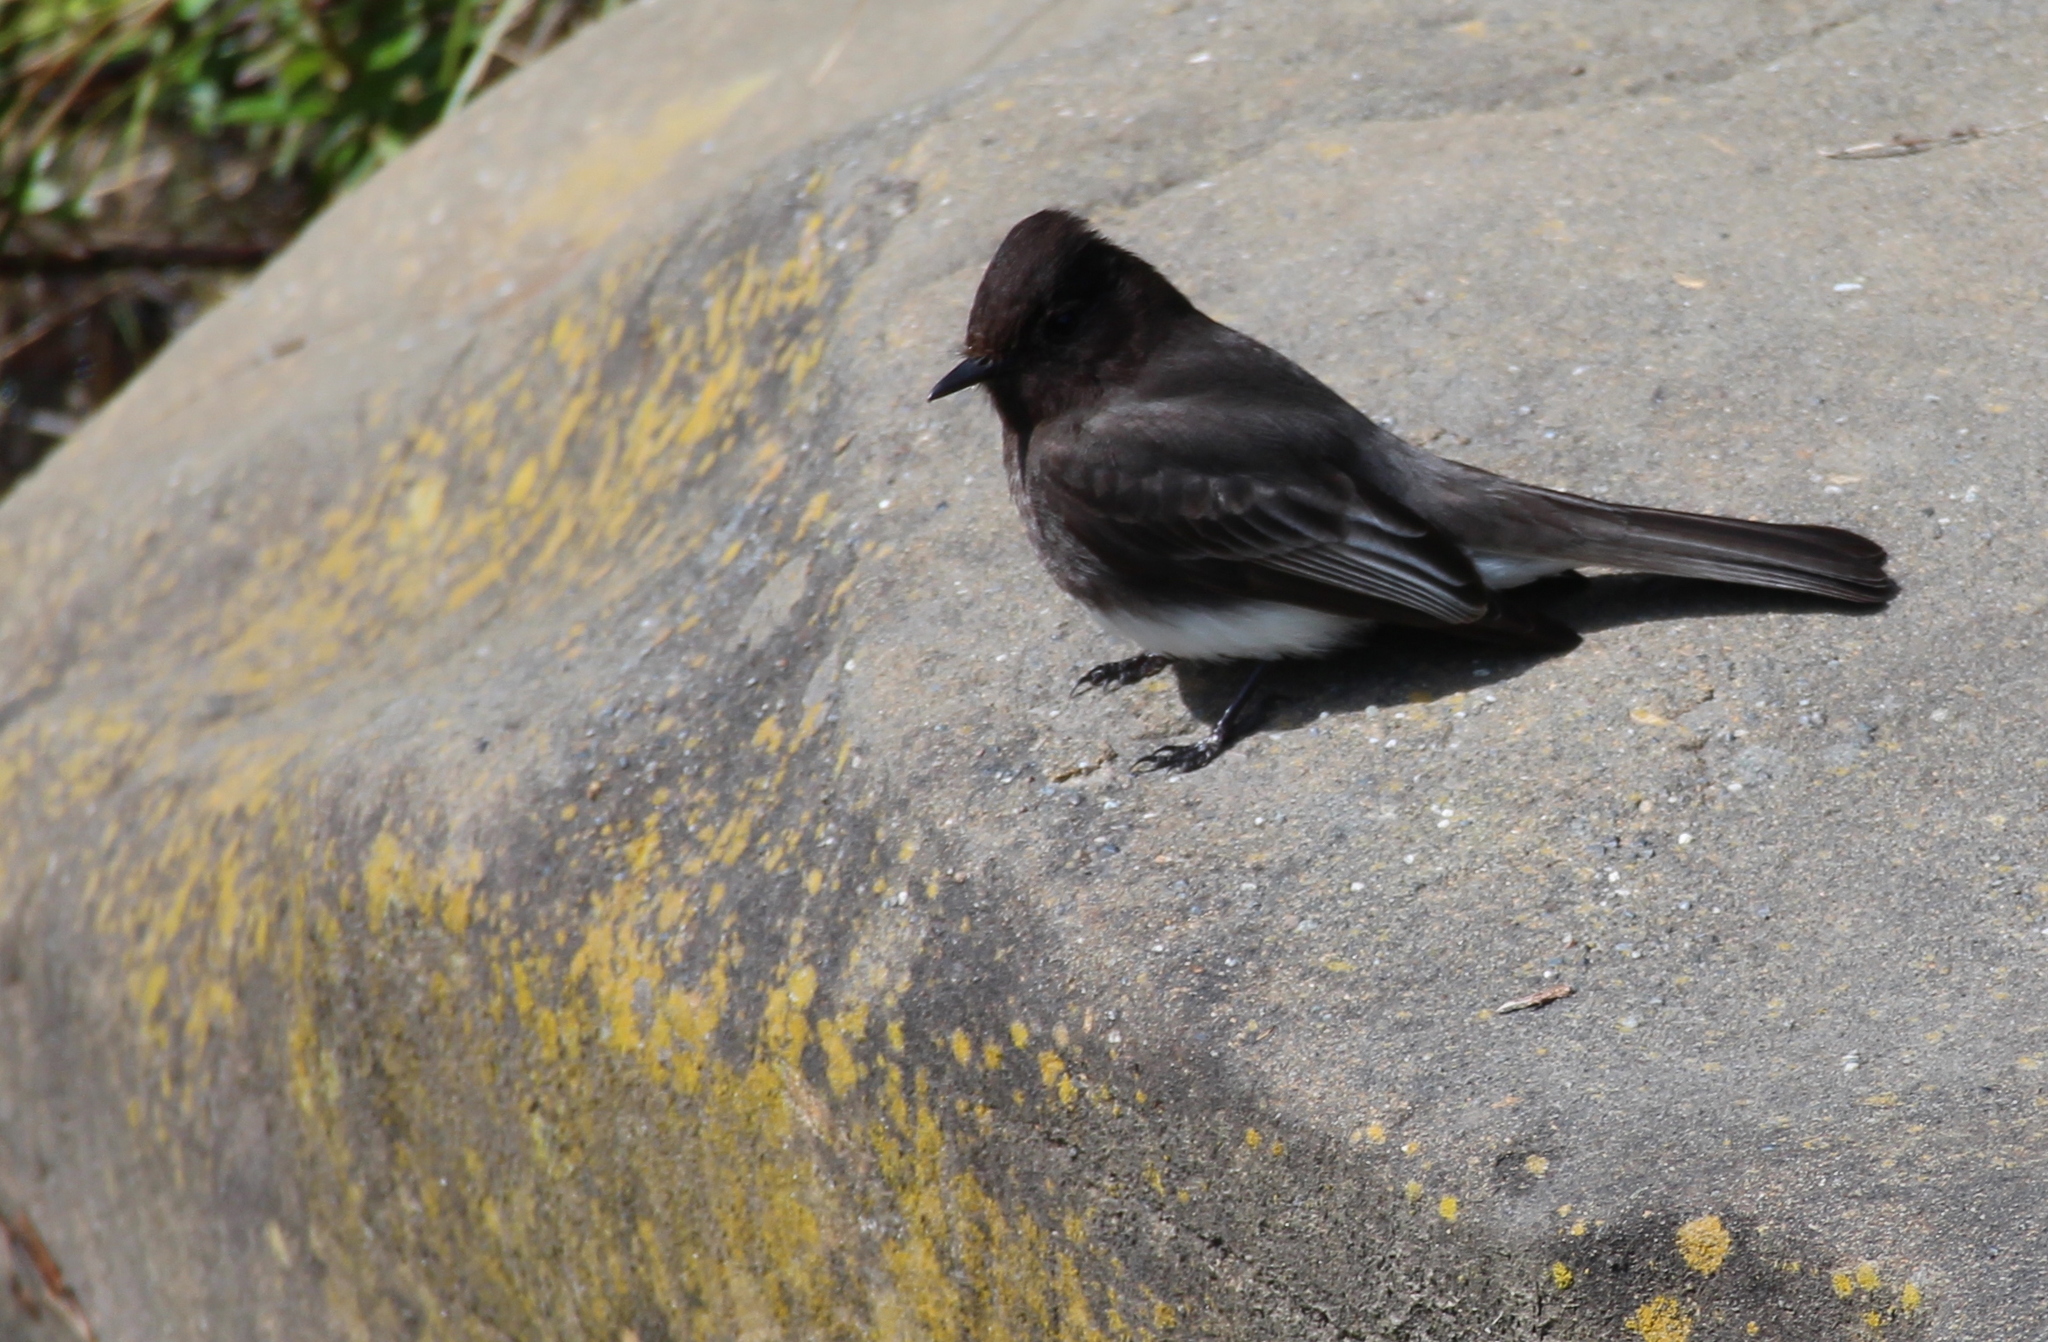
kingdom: Animalia
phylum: Chordata
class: Aves
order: Passeriformes
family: Tyrannidae
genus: Sayornis
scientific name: Sayornis nigricans
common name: Black phoebe
